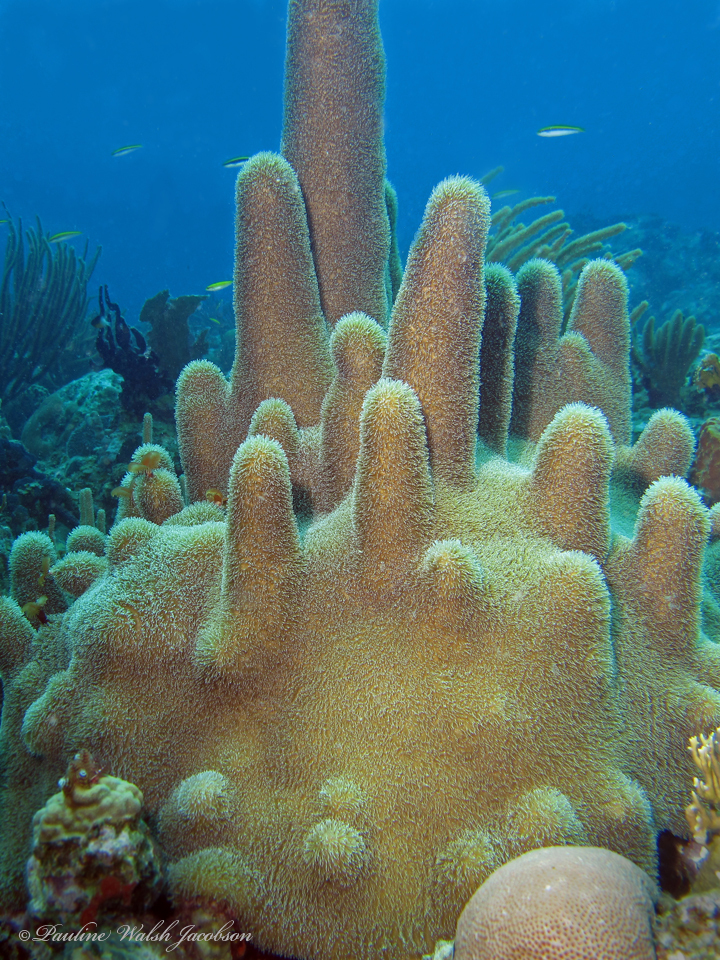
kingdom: Animalia
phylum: Cnidaria
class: Anthozoa
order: Scleractinia
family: Meandrinidae
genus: Dendrogyra
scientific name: Dendrogyra cylindrus
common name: Pillar coral
